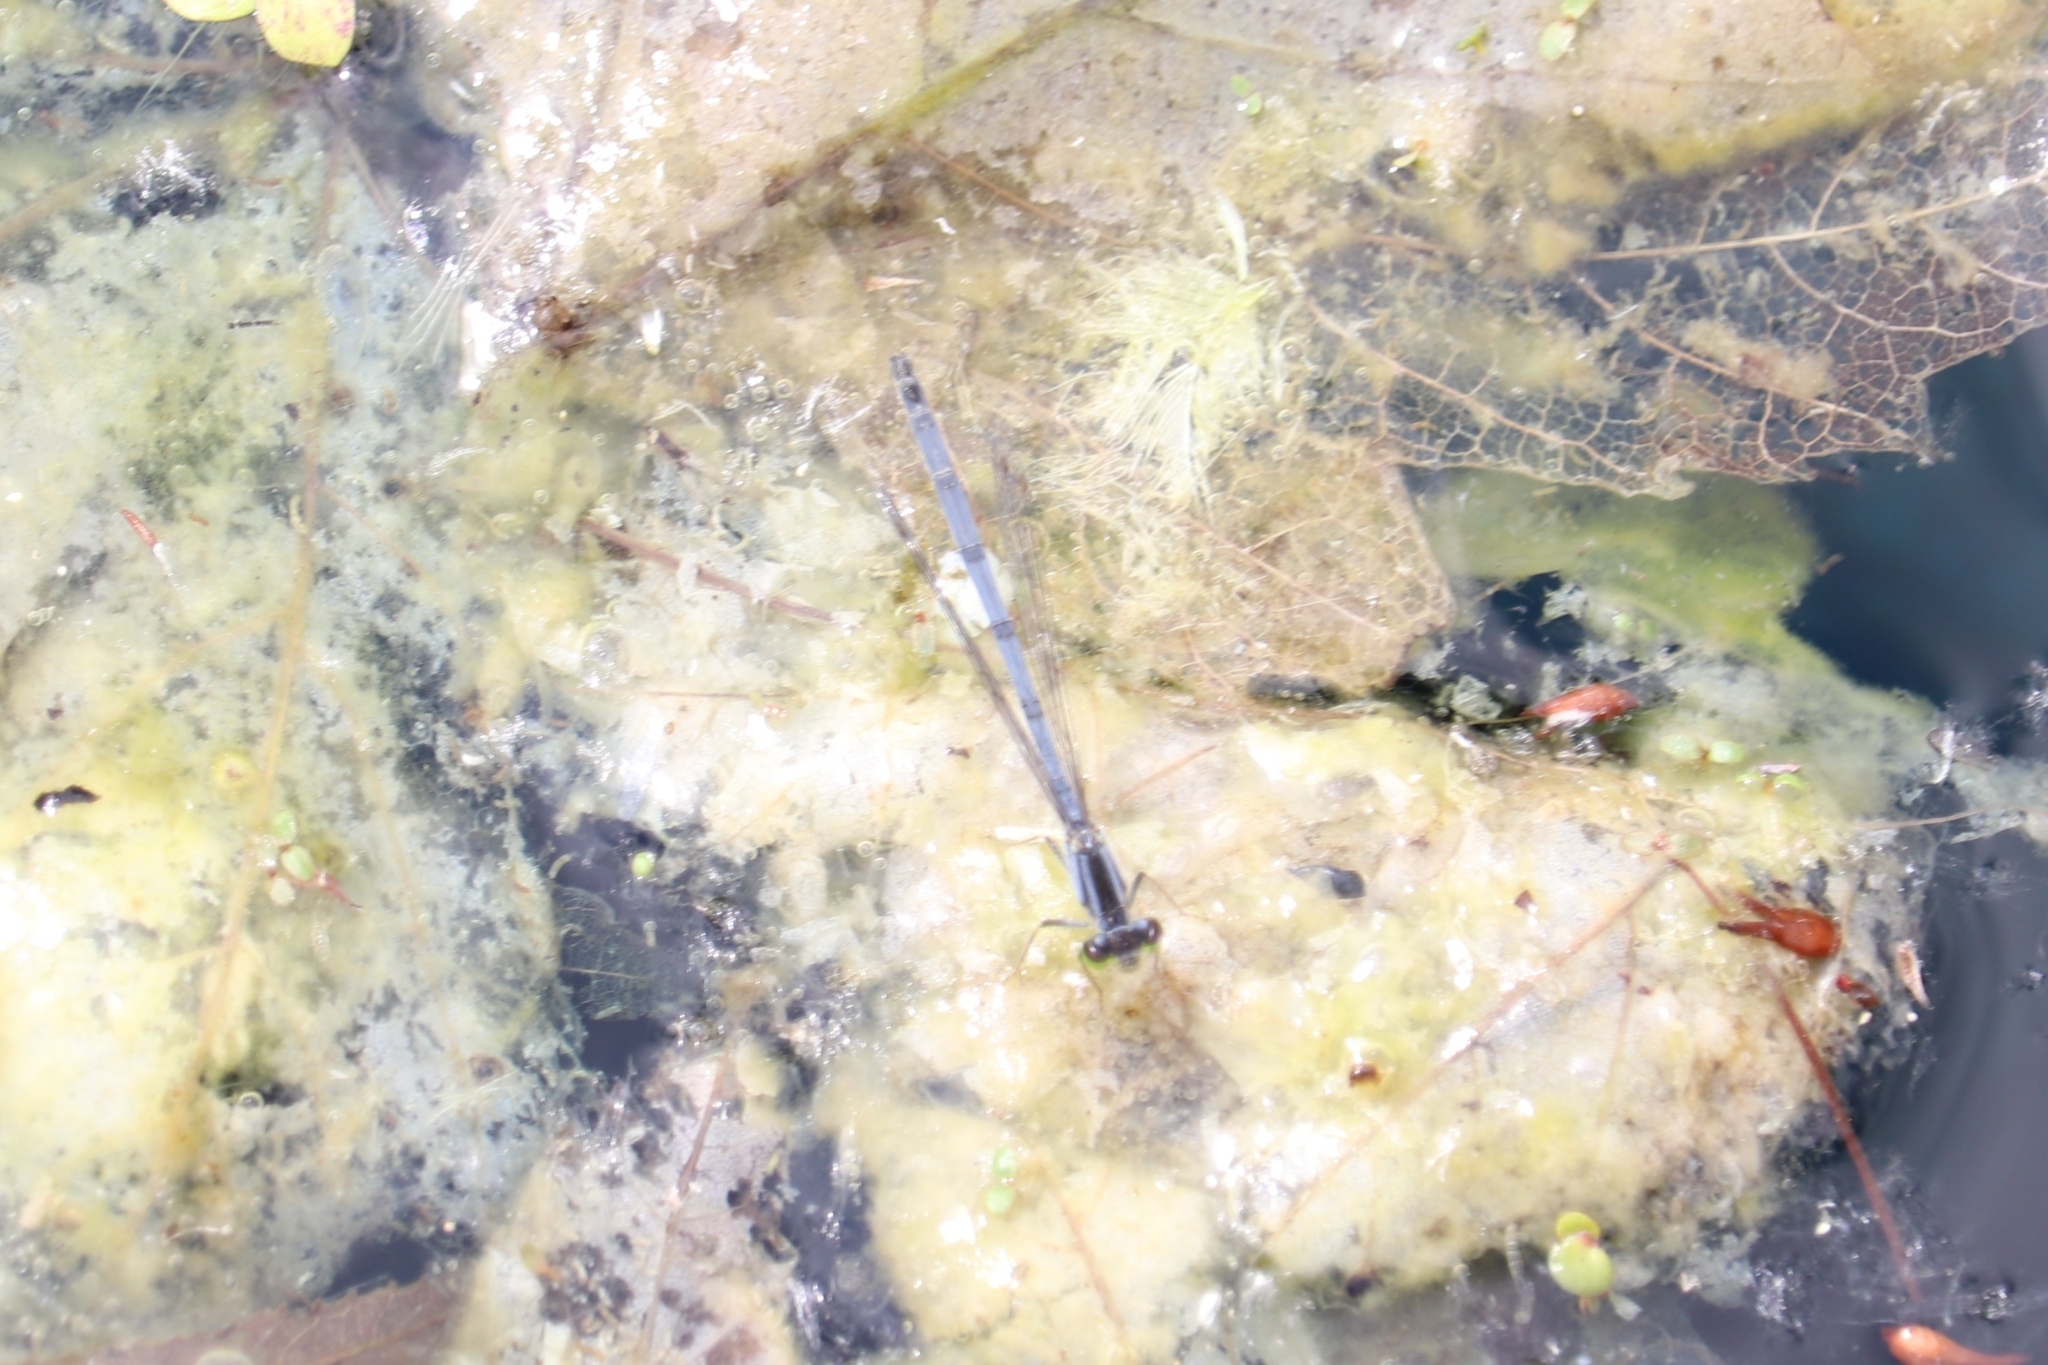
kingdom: Animalia
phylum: Arthropoda
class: Insecta
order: Odonata
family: Coenagrionidae
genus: Ischnura
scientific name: Ischnura verticalis
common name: Eastern forktail
